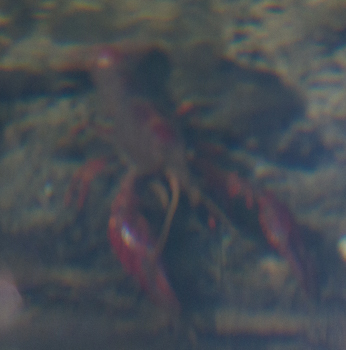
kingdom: Animalia
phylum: Arthropoda
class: Malacostraca
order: Decapoda
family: Cambaridae
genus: Procambarus
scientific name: Procambarus clarkii
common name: Red swamp crayfish
